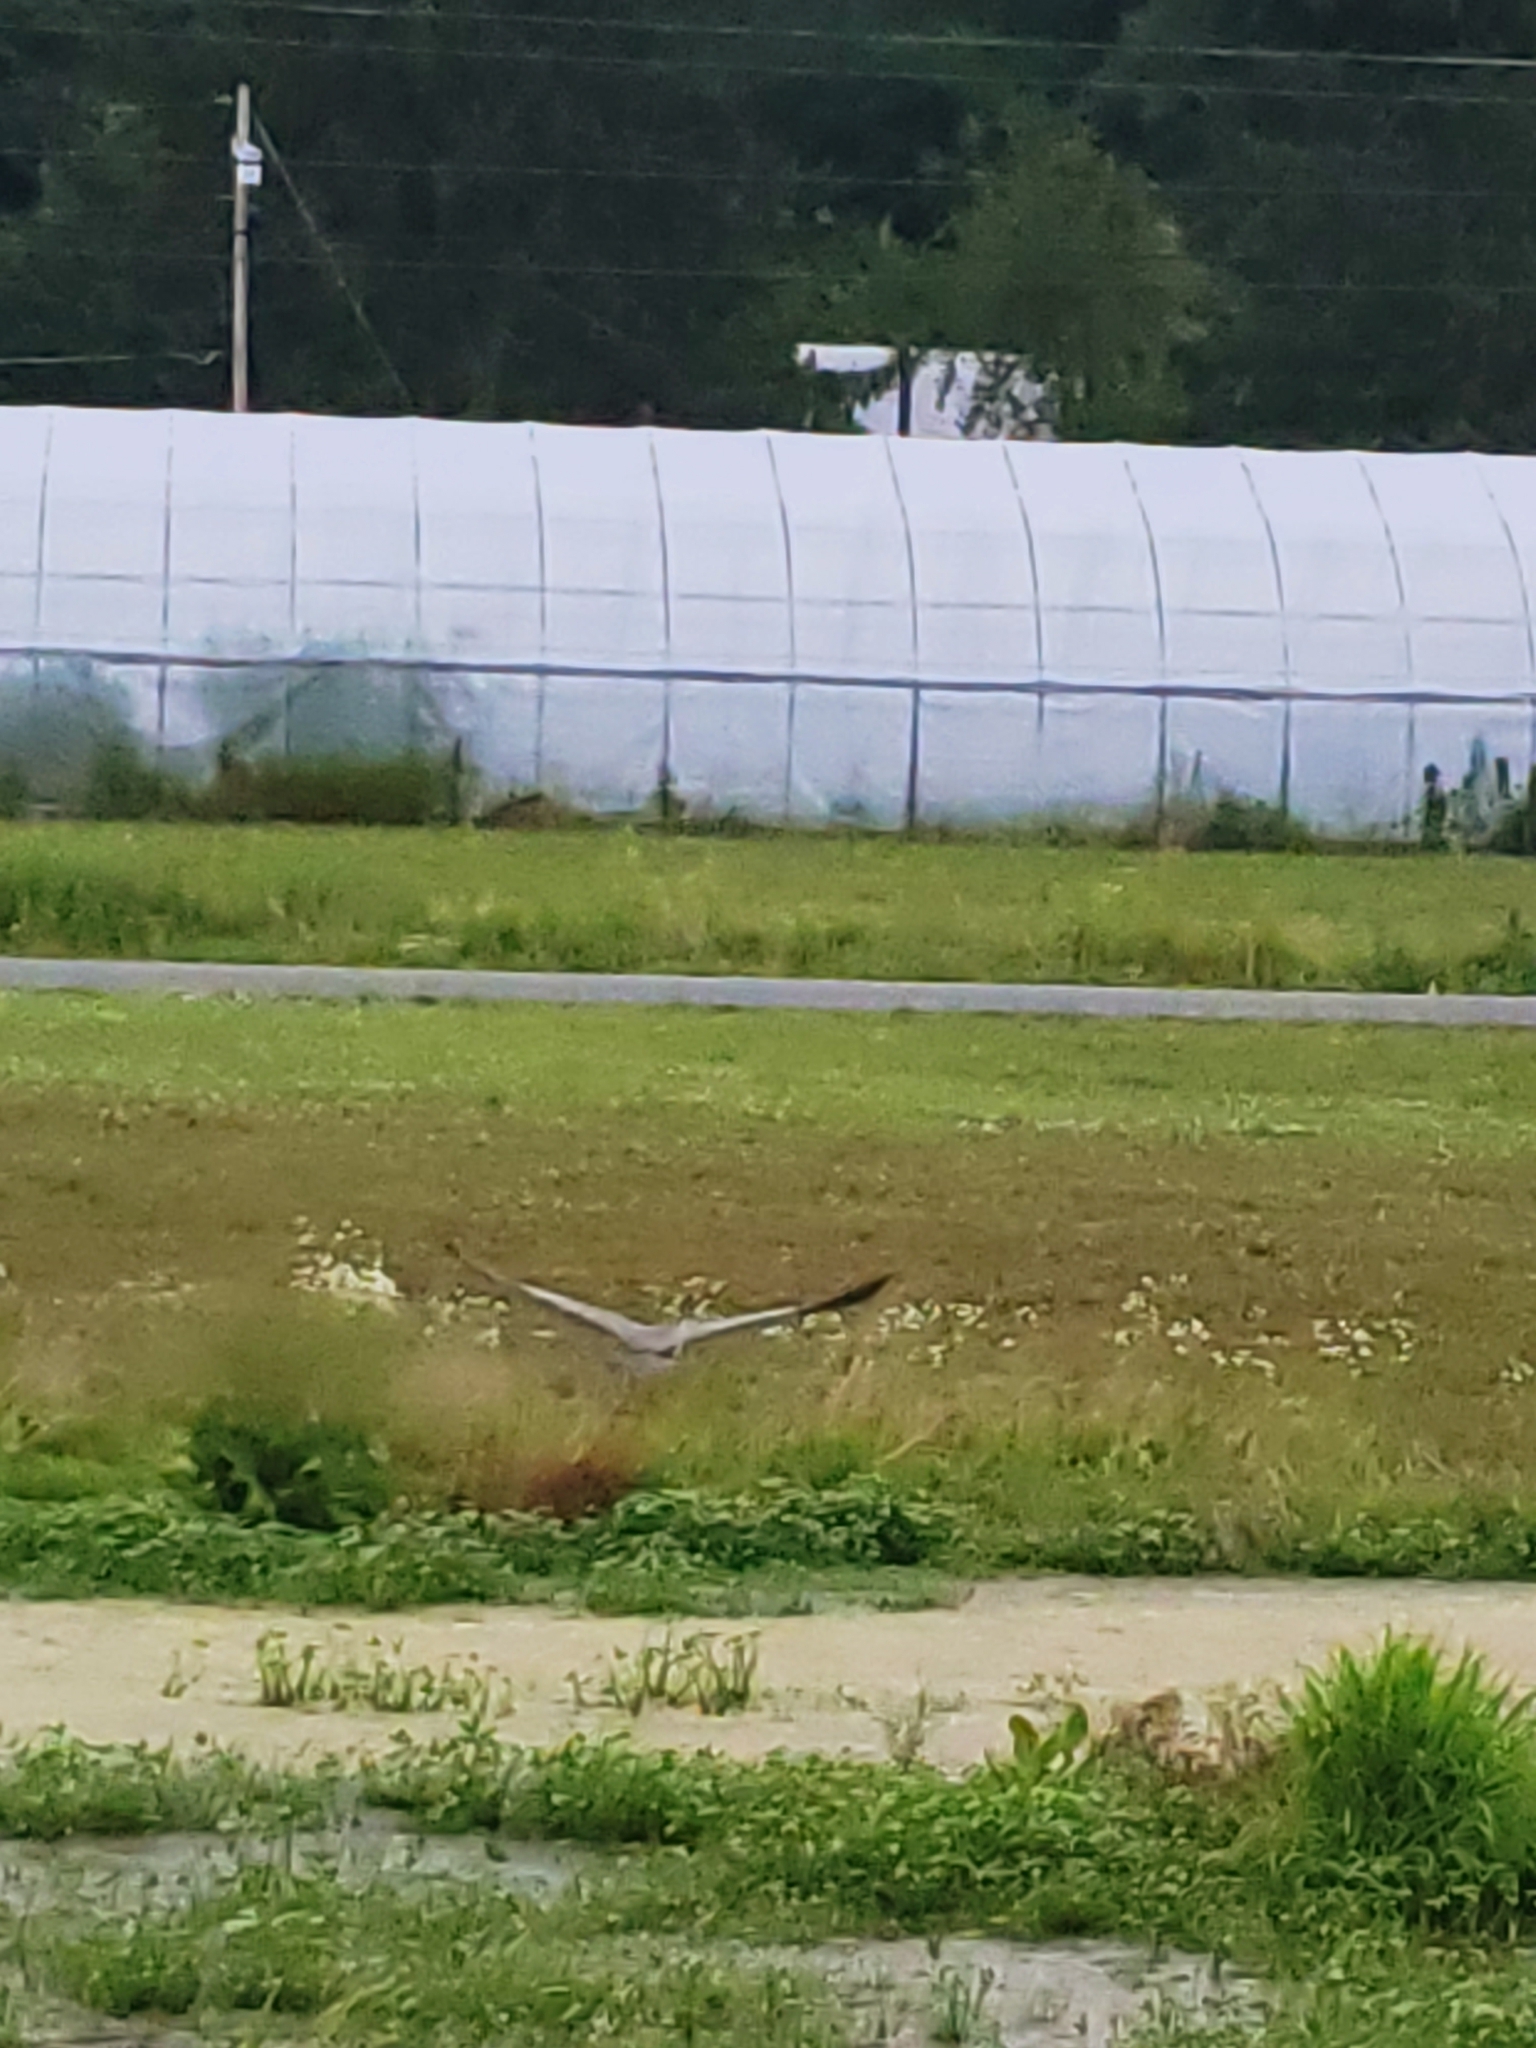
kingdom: Animalia
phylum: Chordata
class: Aves
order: Pelecaniformes
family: Ardeidae
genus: Ardea
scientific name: Ardea herodias
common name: Great blue heron
